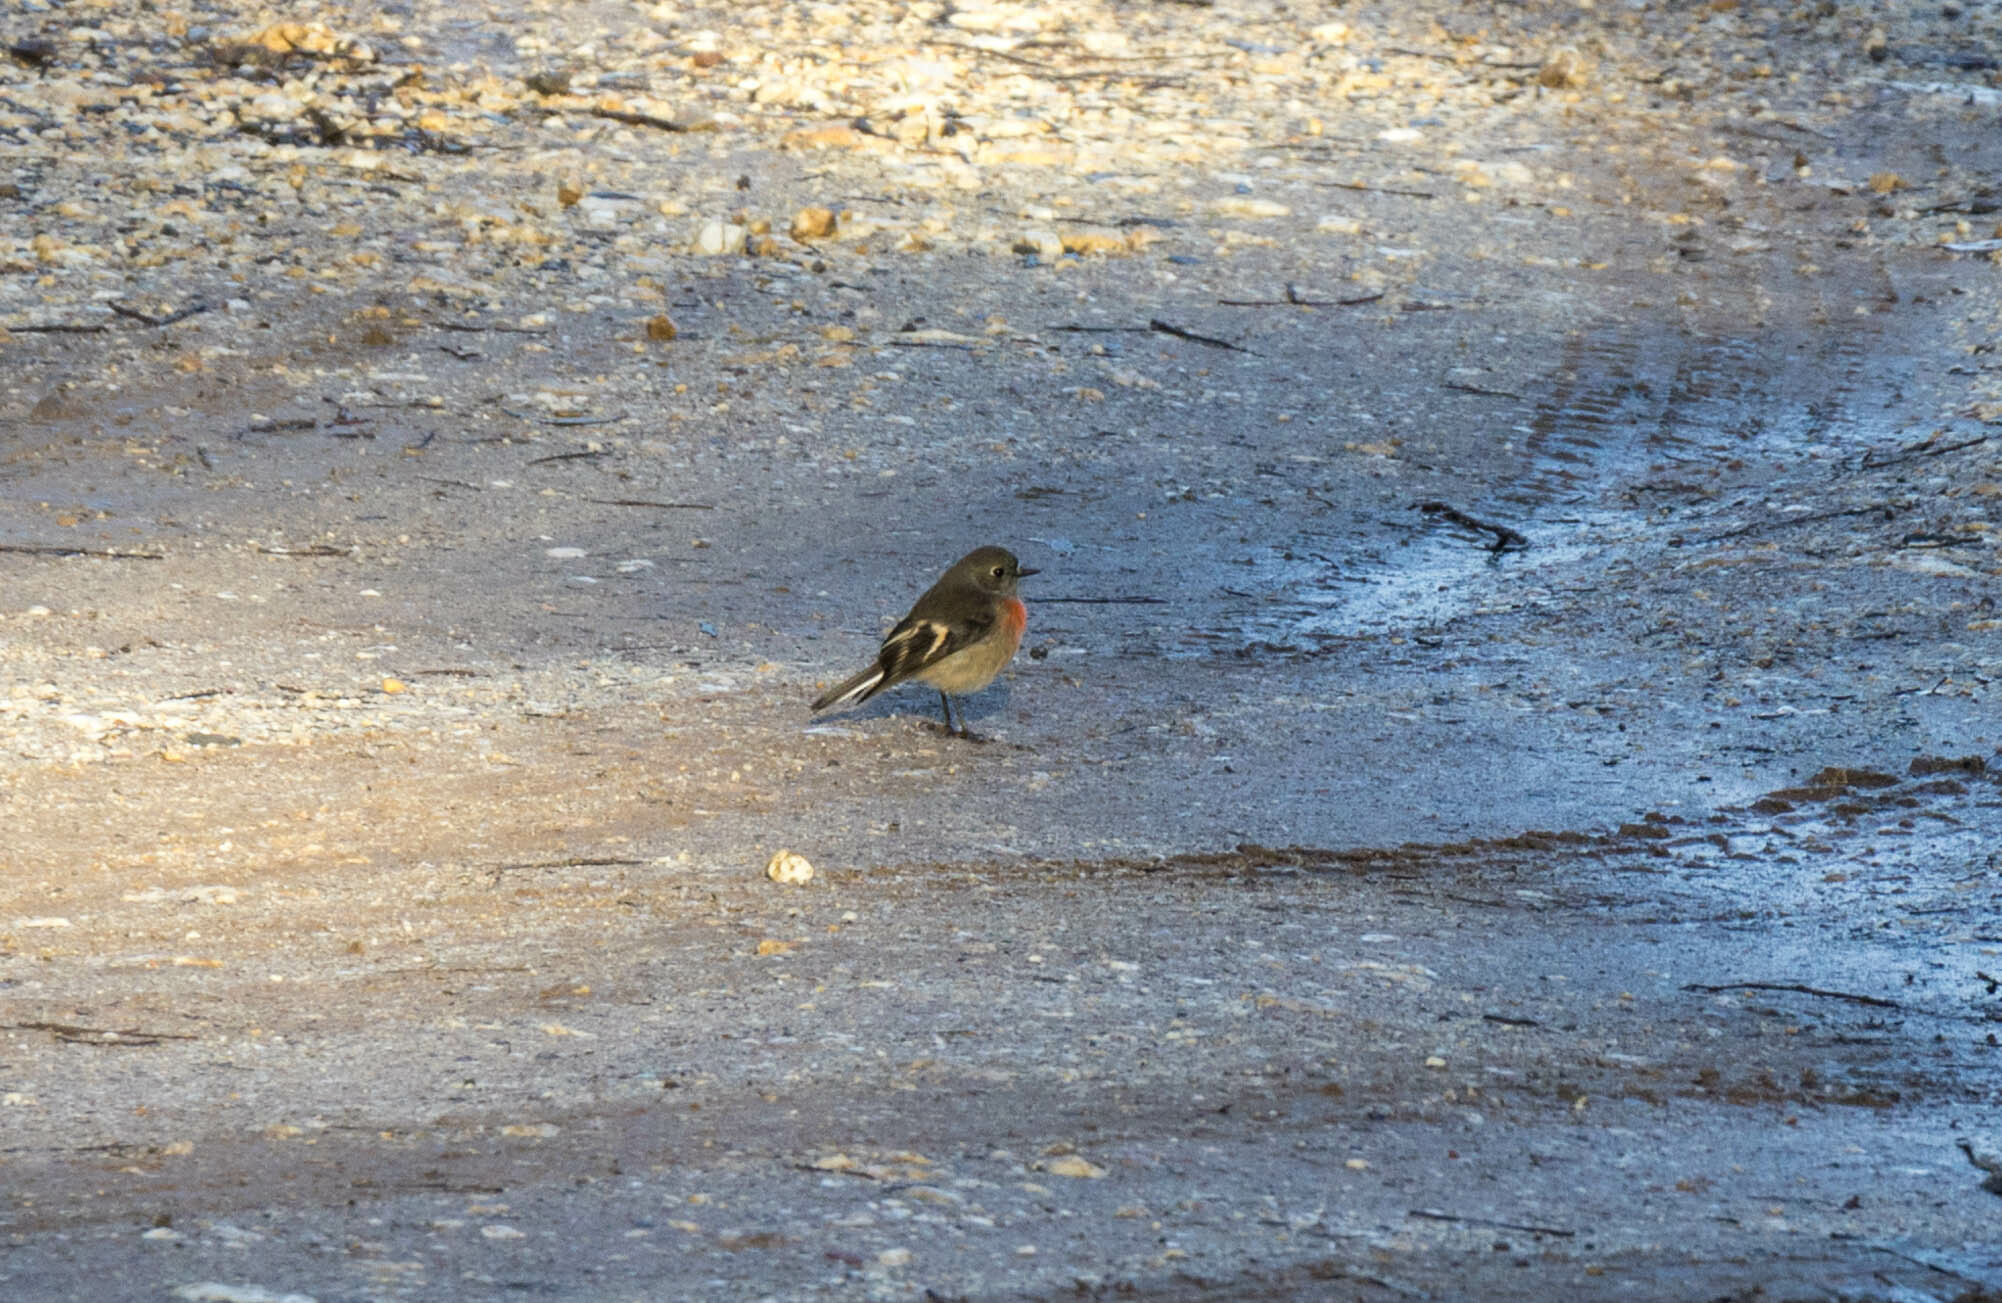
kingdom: Animalia
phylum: Chordata
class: Aves
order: Passeriformes
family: Petroicidae
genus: Petroica
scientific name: Petroica boodang
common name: Scarlet robin
